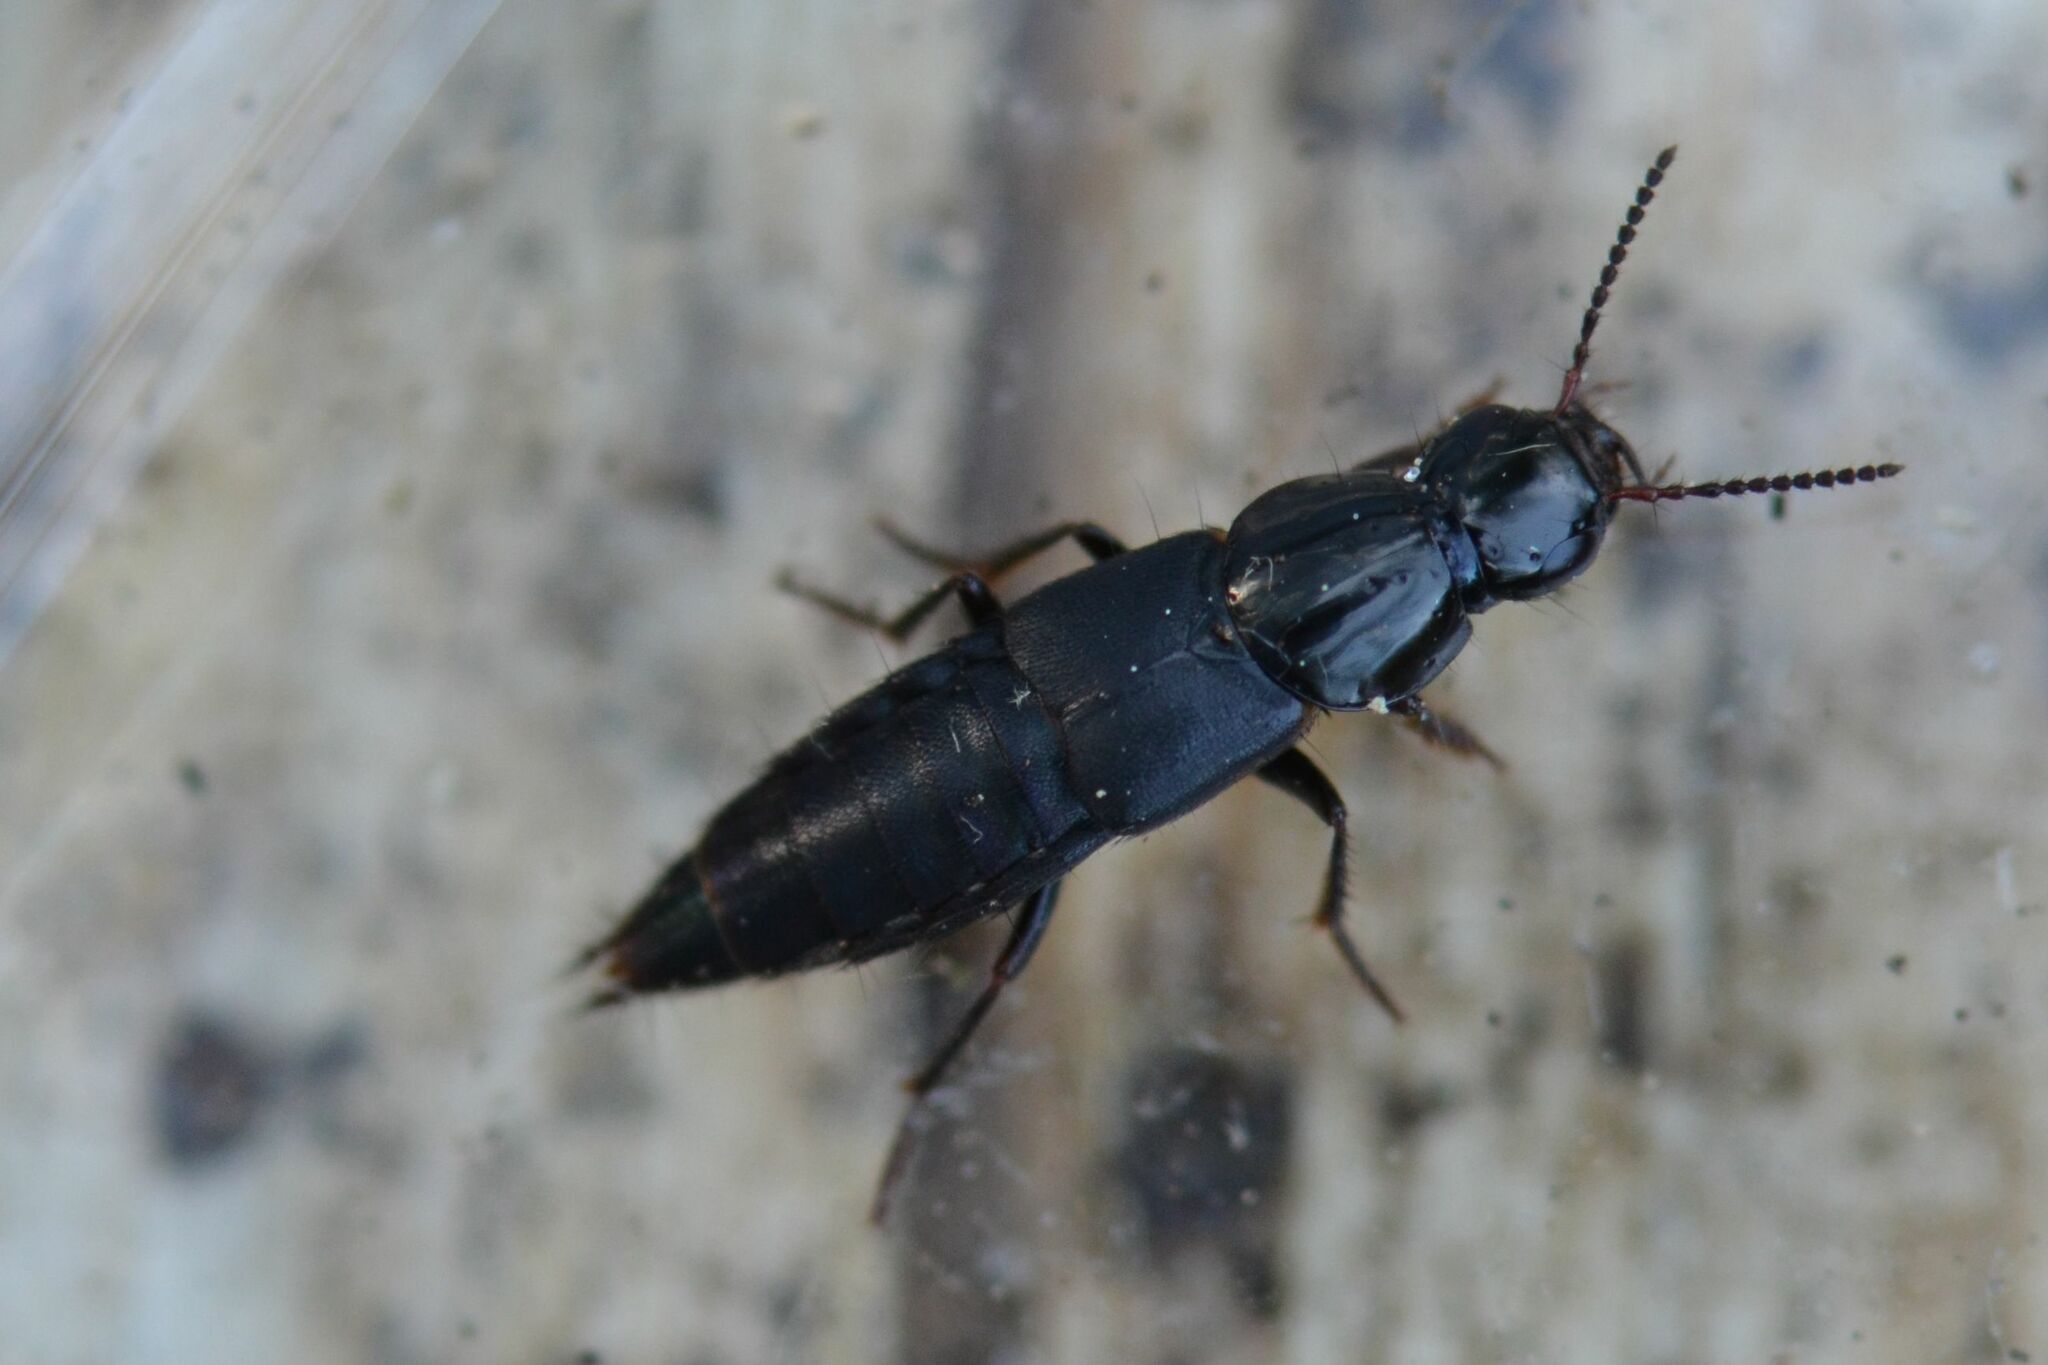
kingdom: Animalia
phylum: Arthropoda
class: Insecta
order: Coleoptera
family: Staphylinidae
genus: Quedius
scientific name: Quedius lateralis
